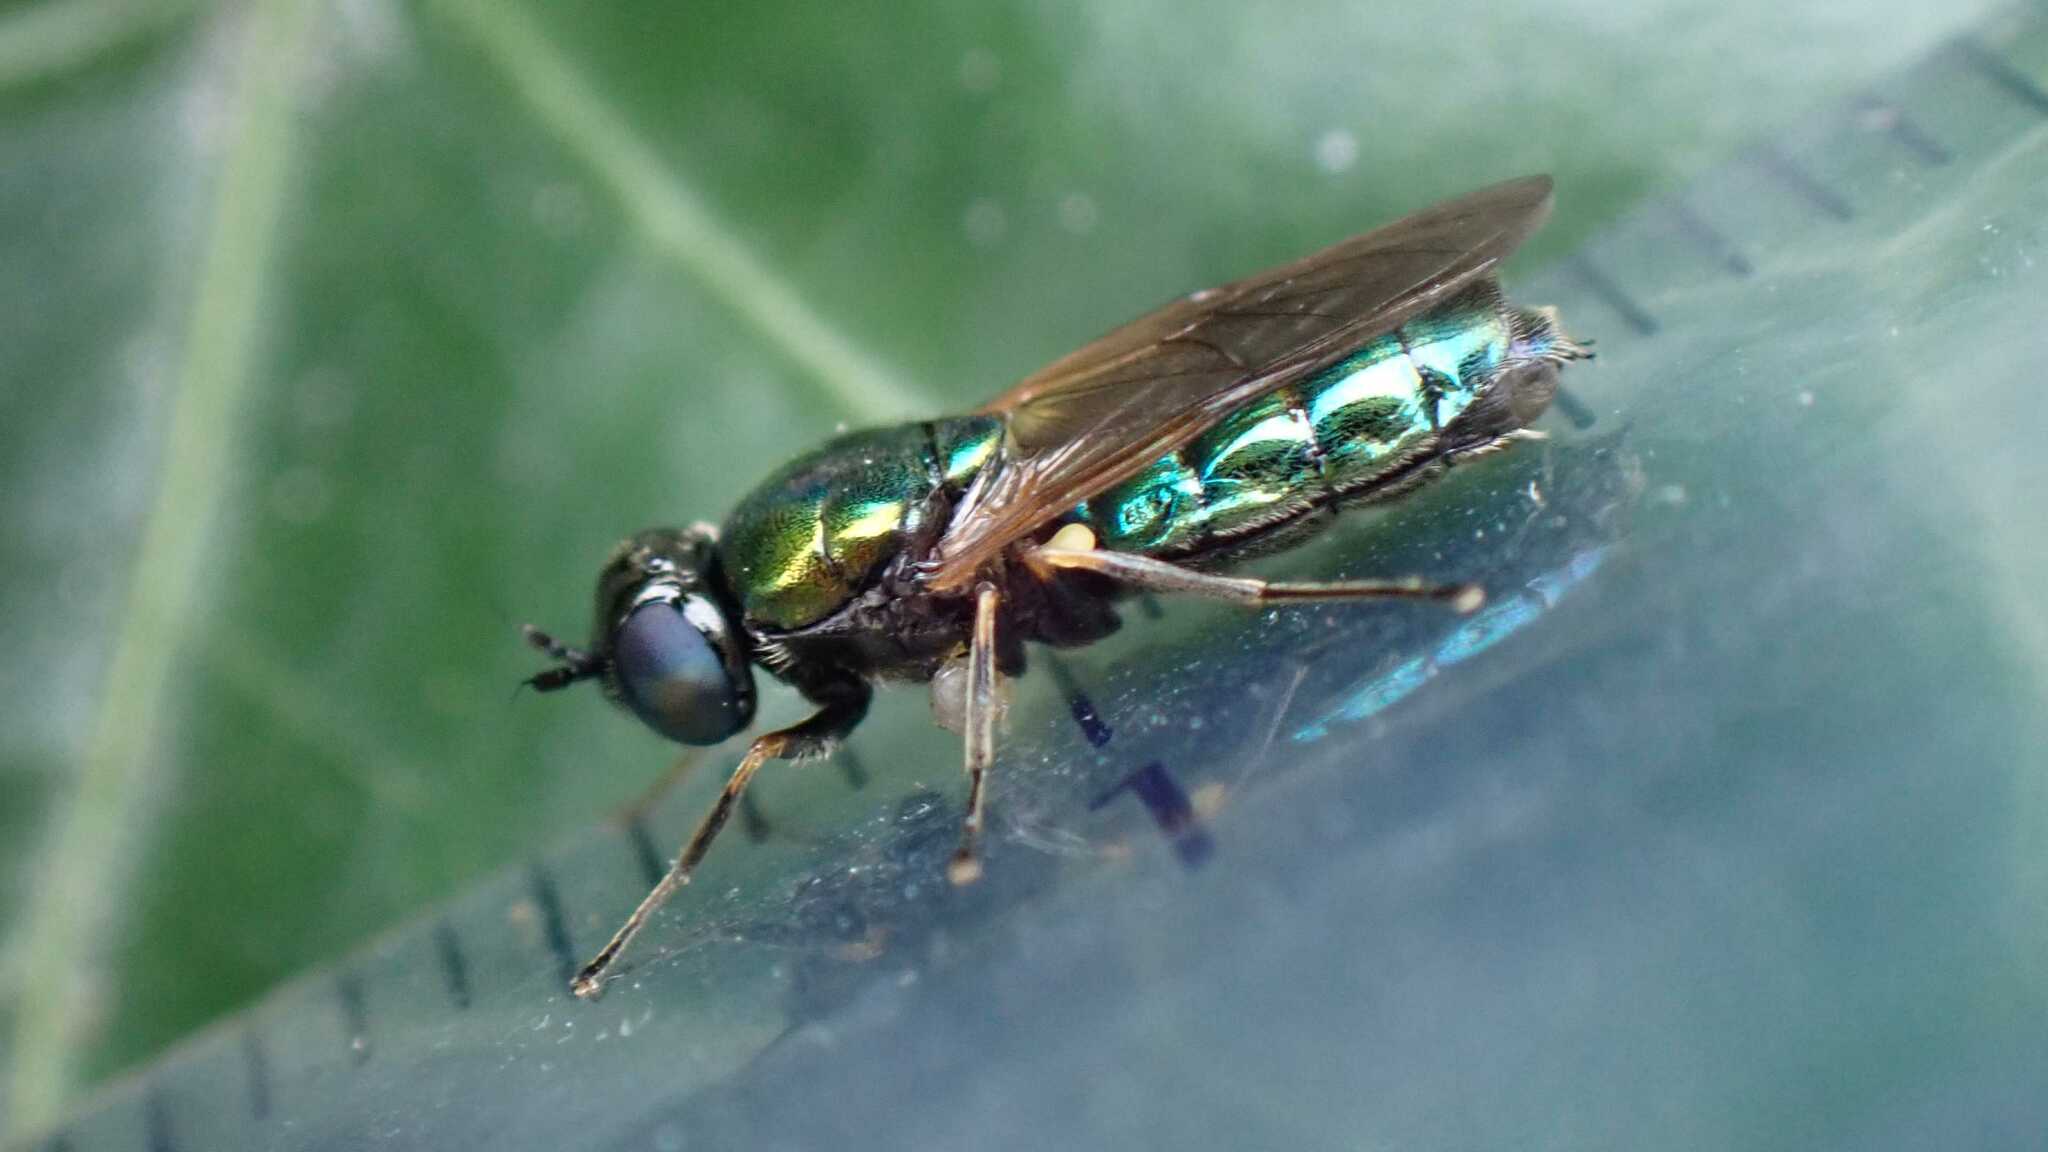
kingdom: Animalia
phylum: Arthropoda
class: Insecta
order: Diptera
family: Stratiomyidae
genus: Chloromyia
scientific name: Chloromyia formosa
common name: Soldier fly
